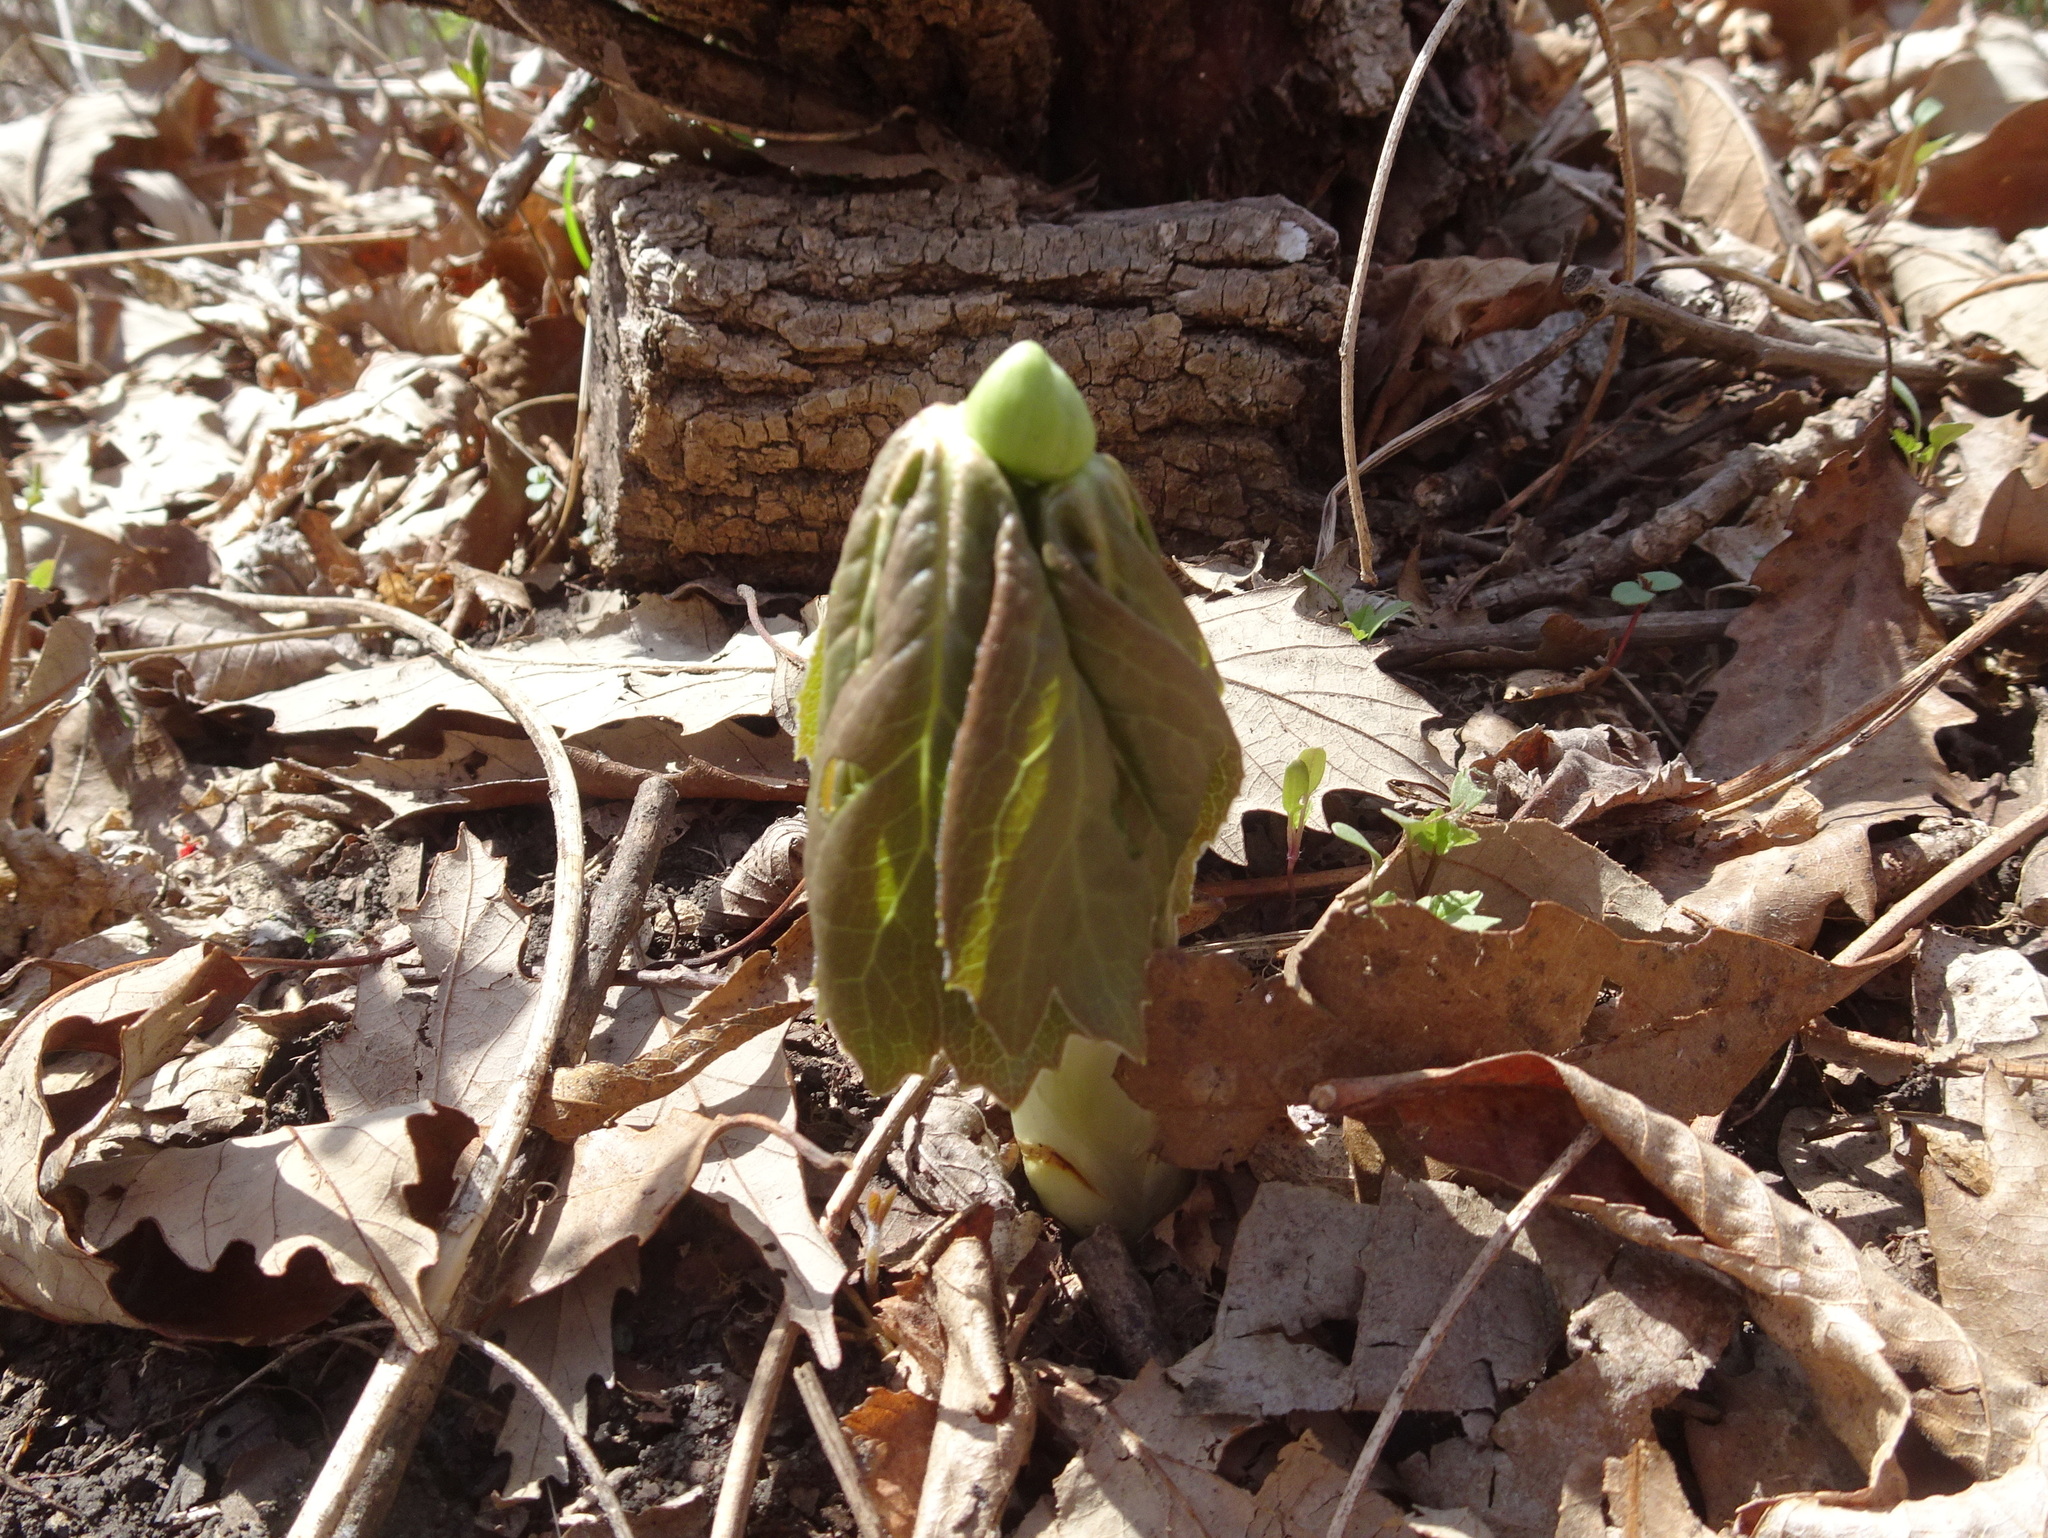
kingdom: Plantae
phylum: Tracheophyta
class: Magnoliopsida
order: Ranunculales
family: Berberidaceae
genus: Podophyllum
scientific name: Podophyllum peltatum
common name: Wild mandrake
